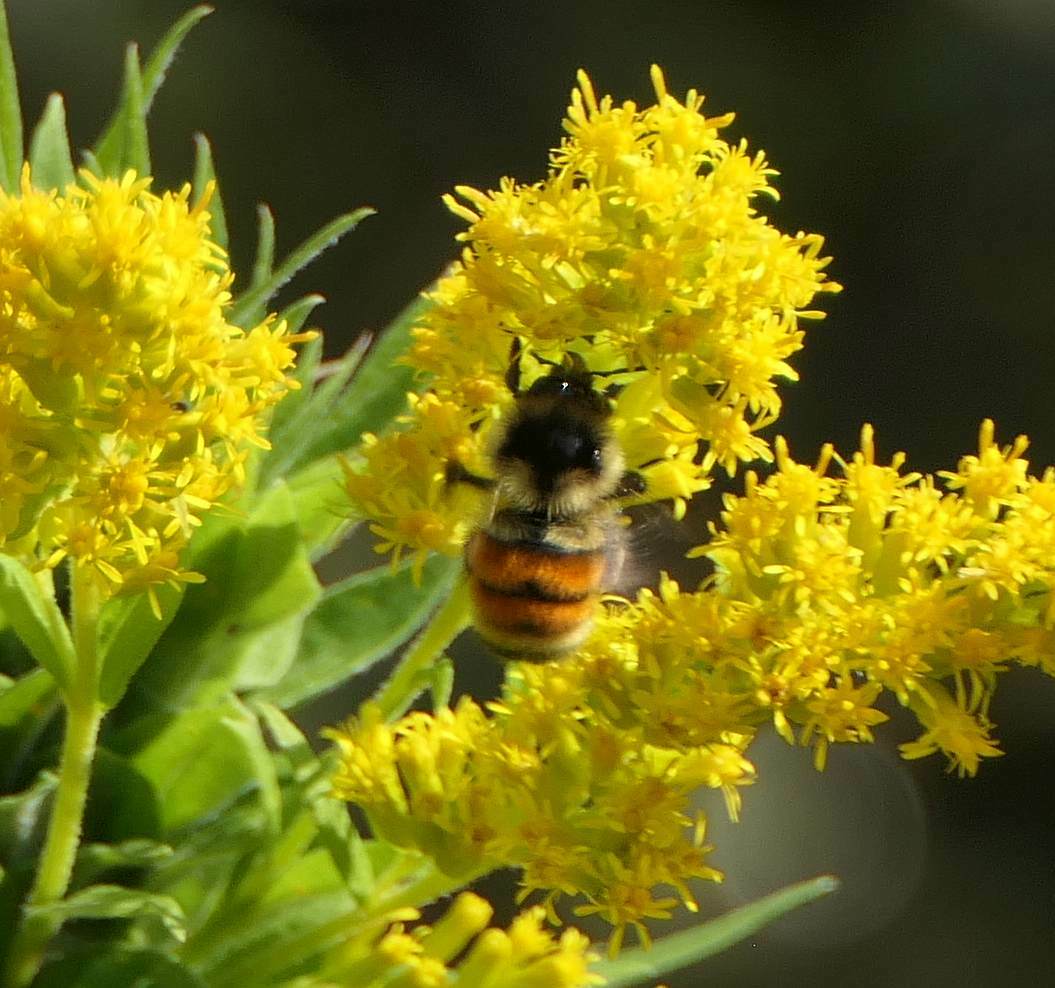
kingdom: Animalia
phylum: Arthropoda
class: Insecta
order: Hymenoptera
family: Apidae
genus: Bombus
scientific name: Bombus ternarius
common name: Tri-colored bumble bee
